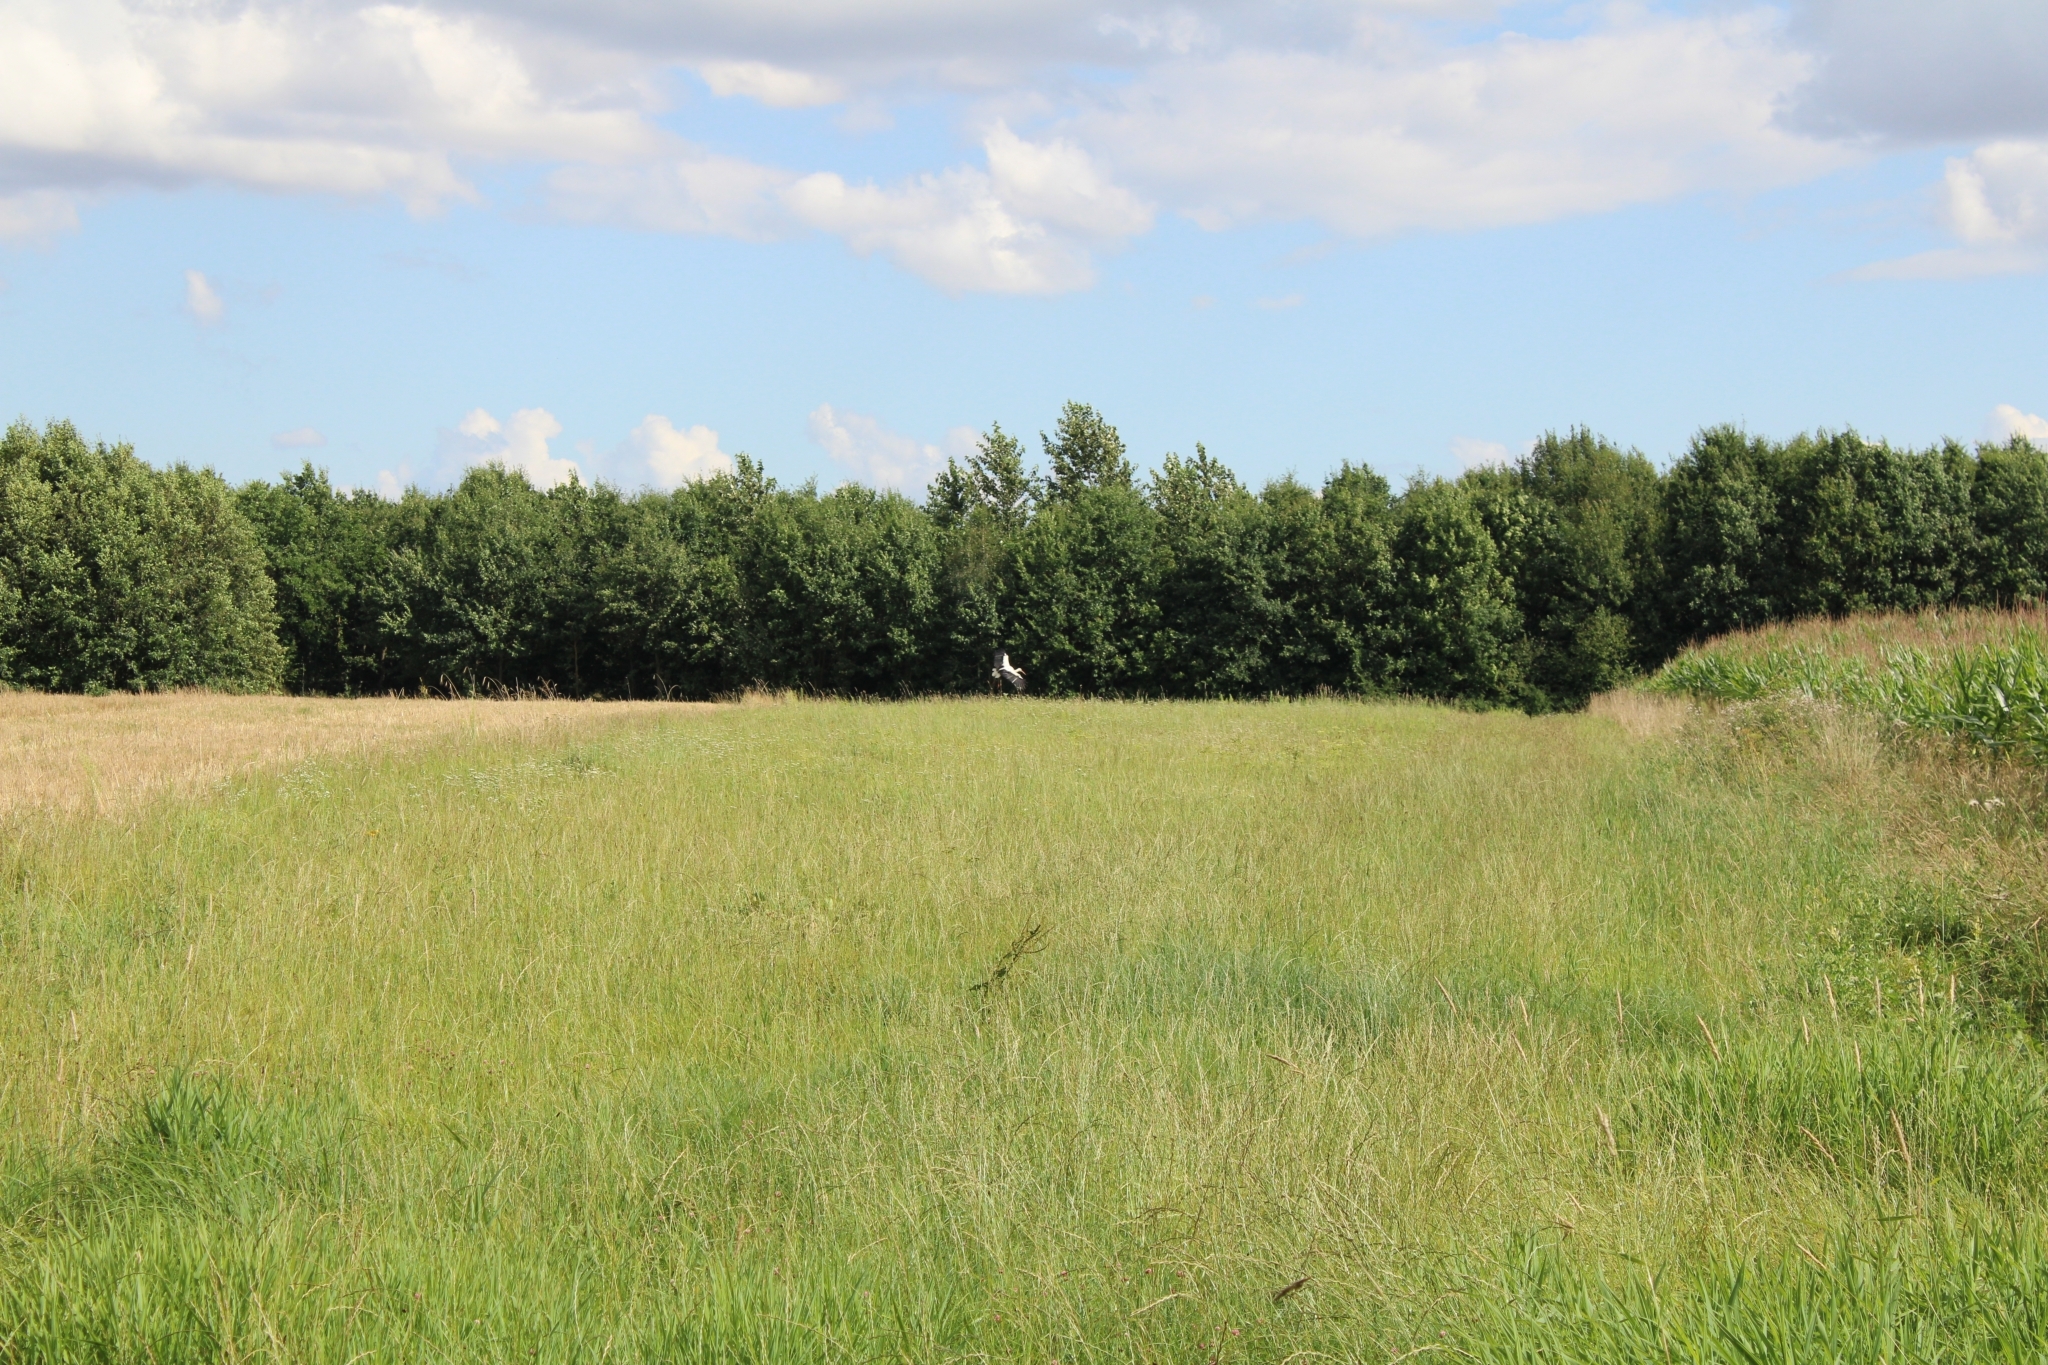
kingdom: Animalia
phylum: Chordata
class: Aves
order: Ciconiiformes
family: Ciconiidae
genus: Ciconia
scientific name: Ciconia ciconia
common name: White stork
